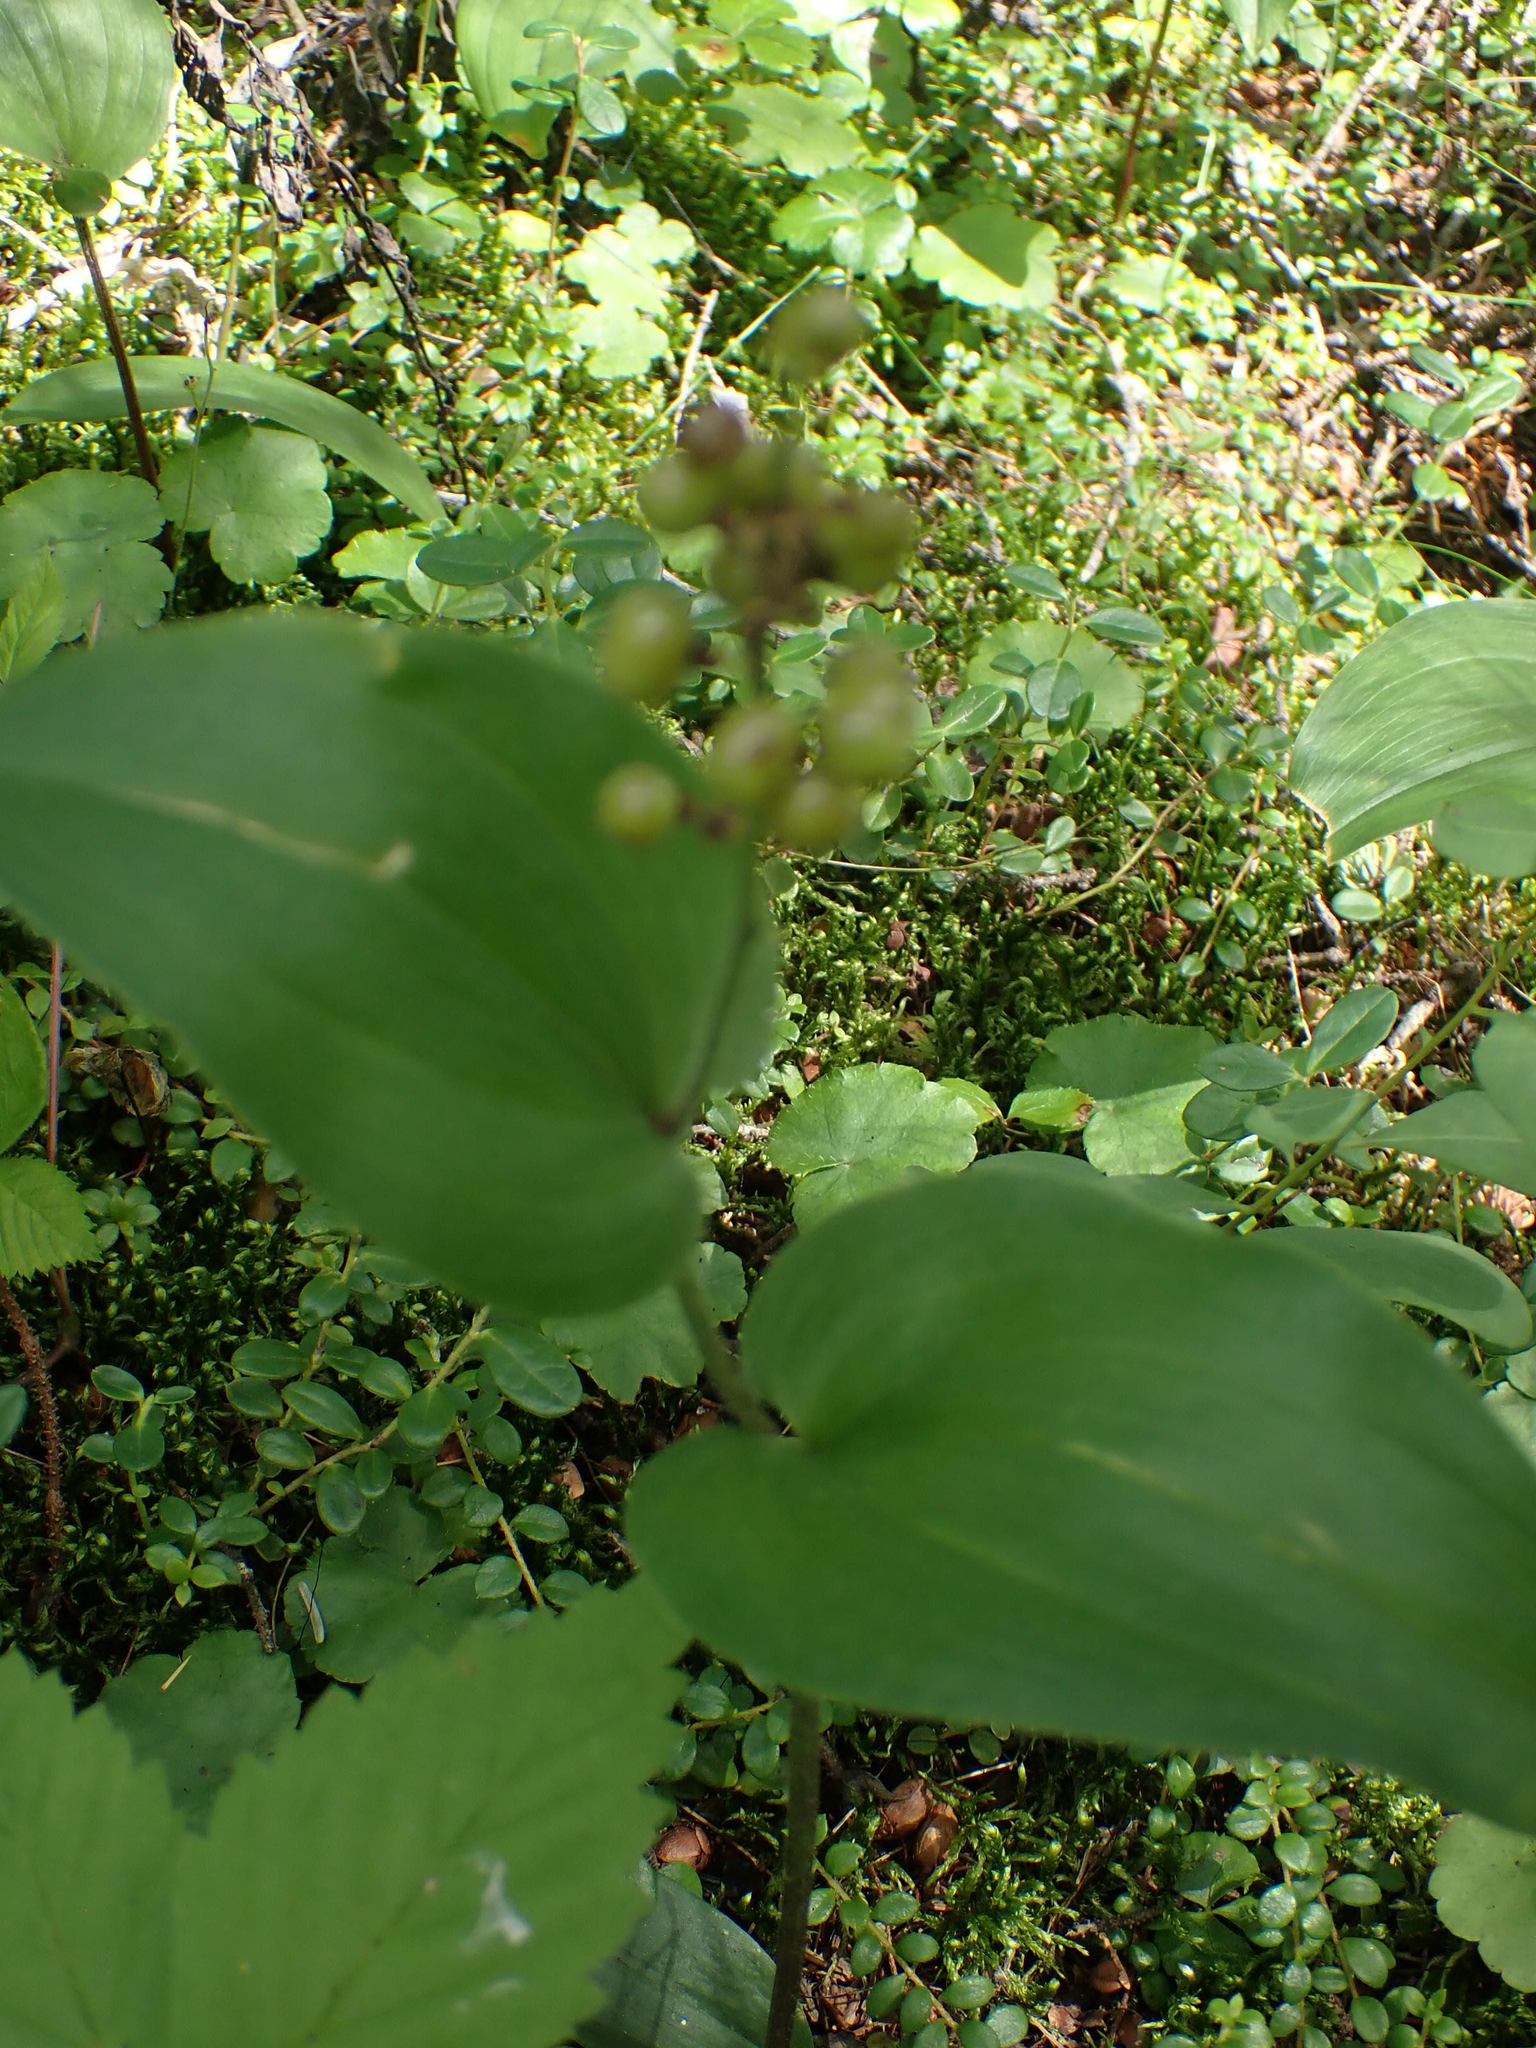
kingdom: Plantae
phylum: Tracheophyta
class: Liliopsida
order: Asparagales
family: Asparagaceae
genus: Maianthemum
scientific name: Maianthemum canadense
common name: False lily-of-the-valley
